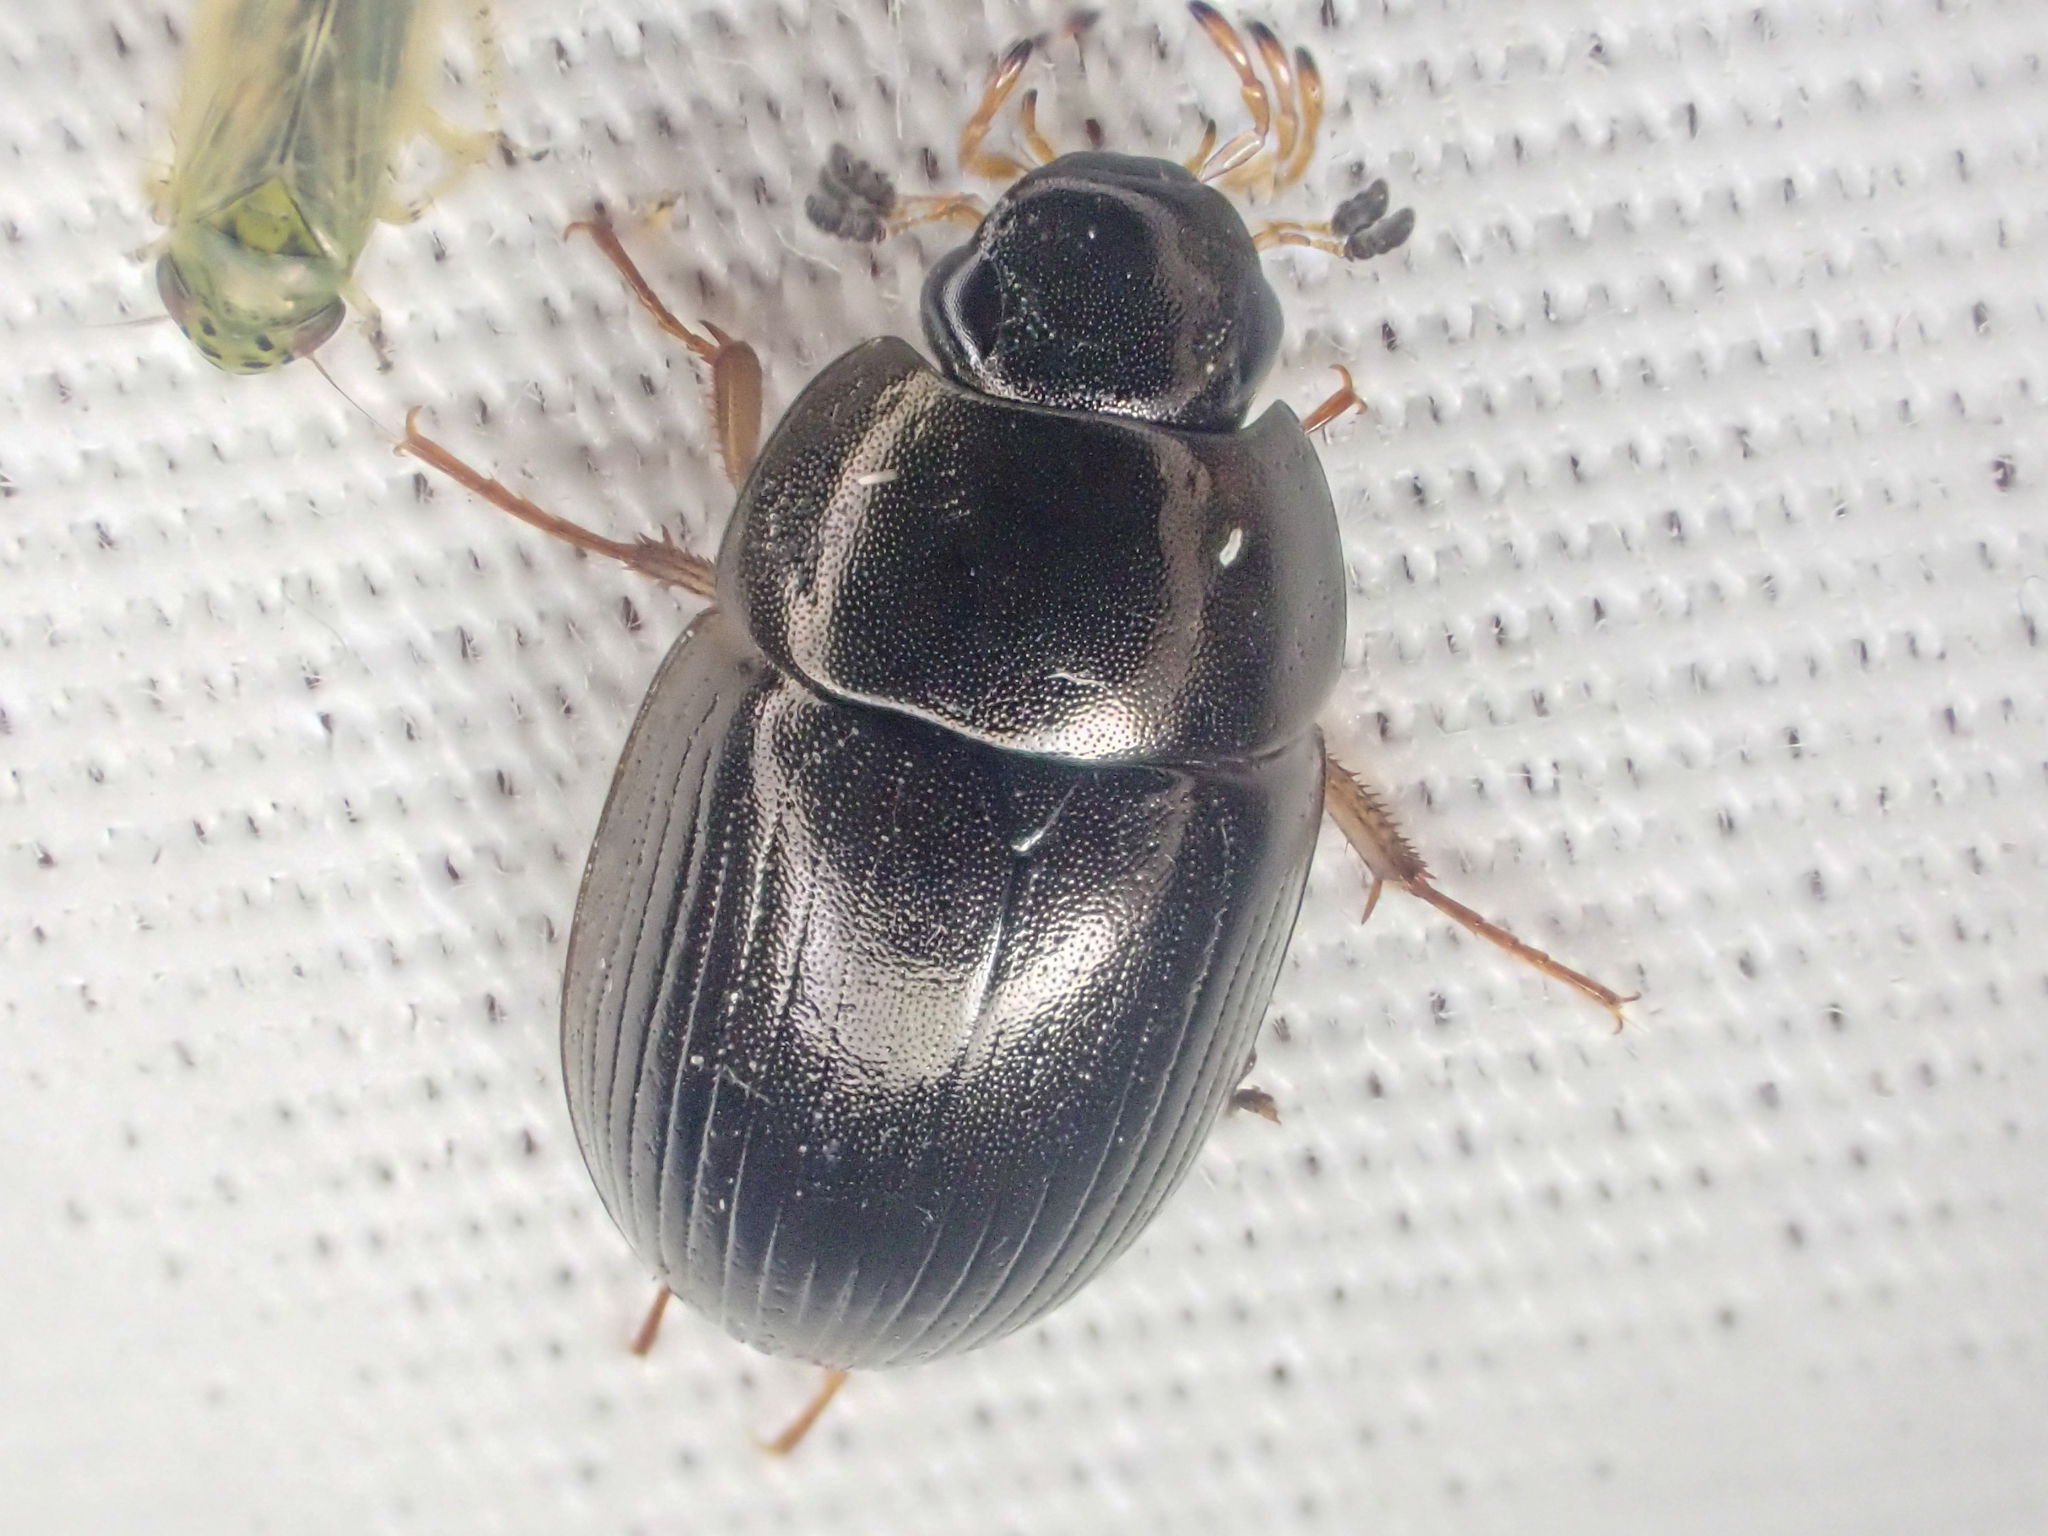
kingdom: Animalia
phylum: Arthropoda
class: Insecta
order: Coleoptera
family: Hydrophilidae
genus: Hydrobius
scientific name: Hydrobius fuscipes
